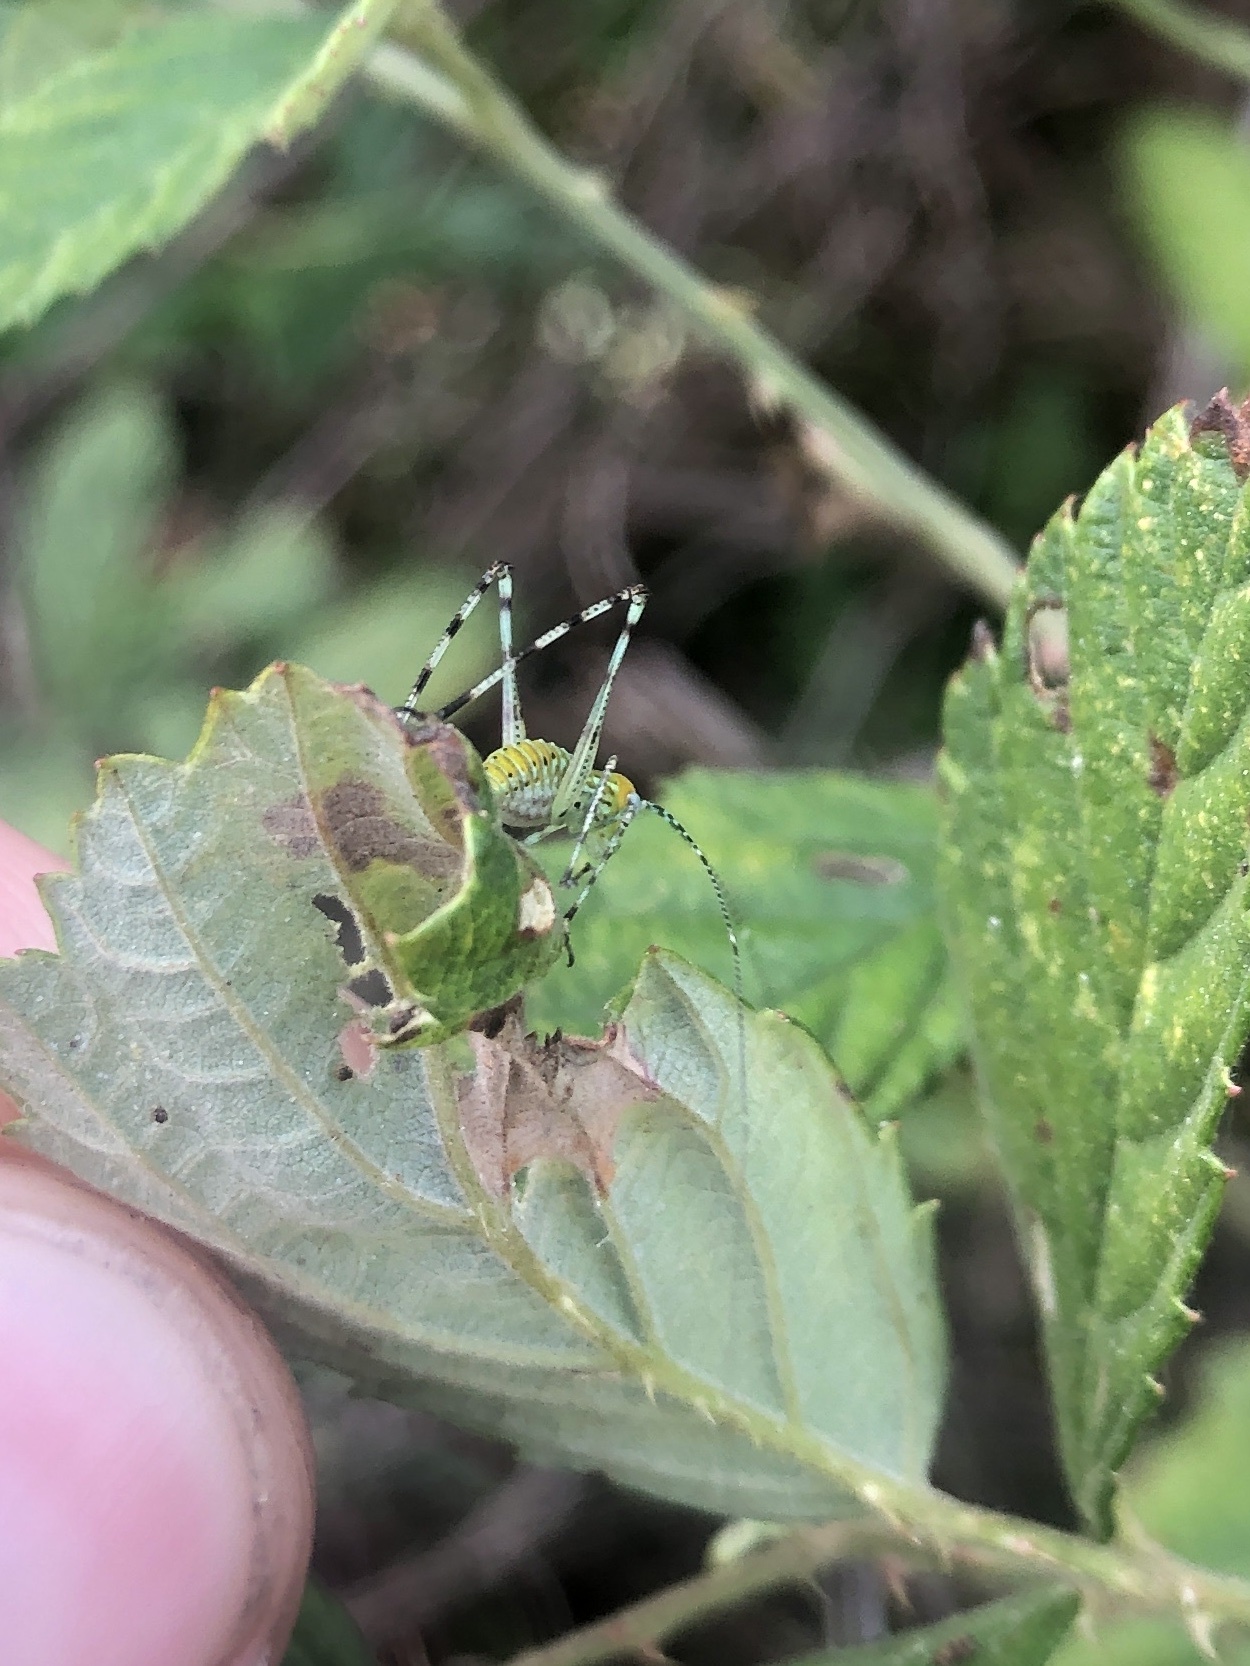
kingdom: Animalia
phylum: Arthropoda
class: Insecta
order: Orthoptera
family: Tettigoniidae
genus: Stilpnochlora
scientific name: Stilpnochlora couloniana
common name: Giant katydid
